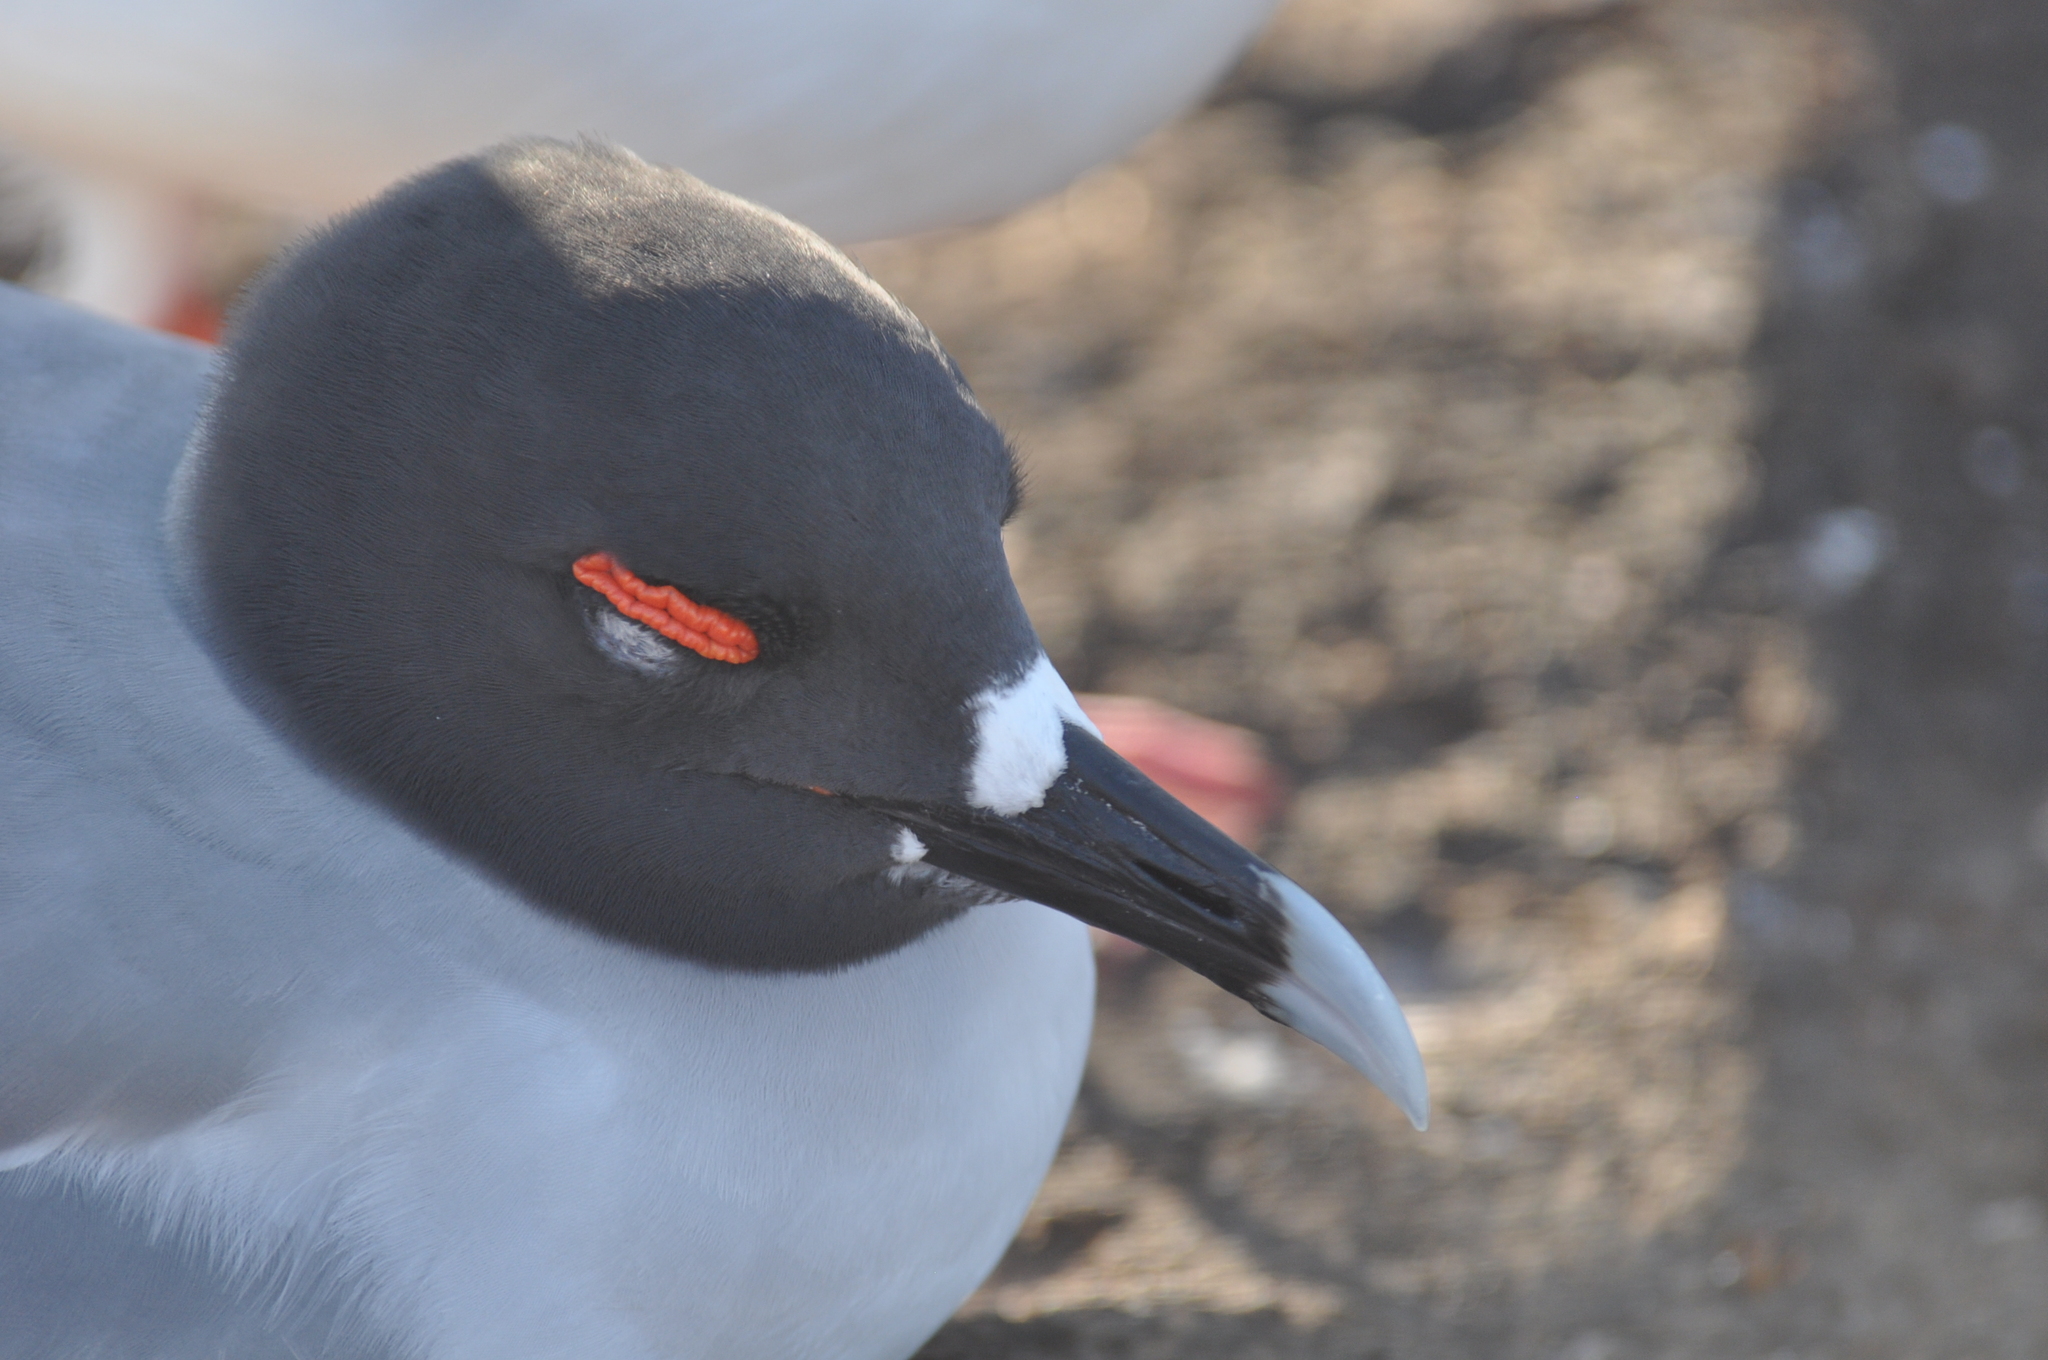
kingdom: Animalia
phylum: Chordata
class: Aves
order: Charadriiformes
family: Laridae
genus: Creagrus
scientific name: Creagrus furcatus
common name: Swallow-tailed gull
